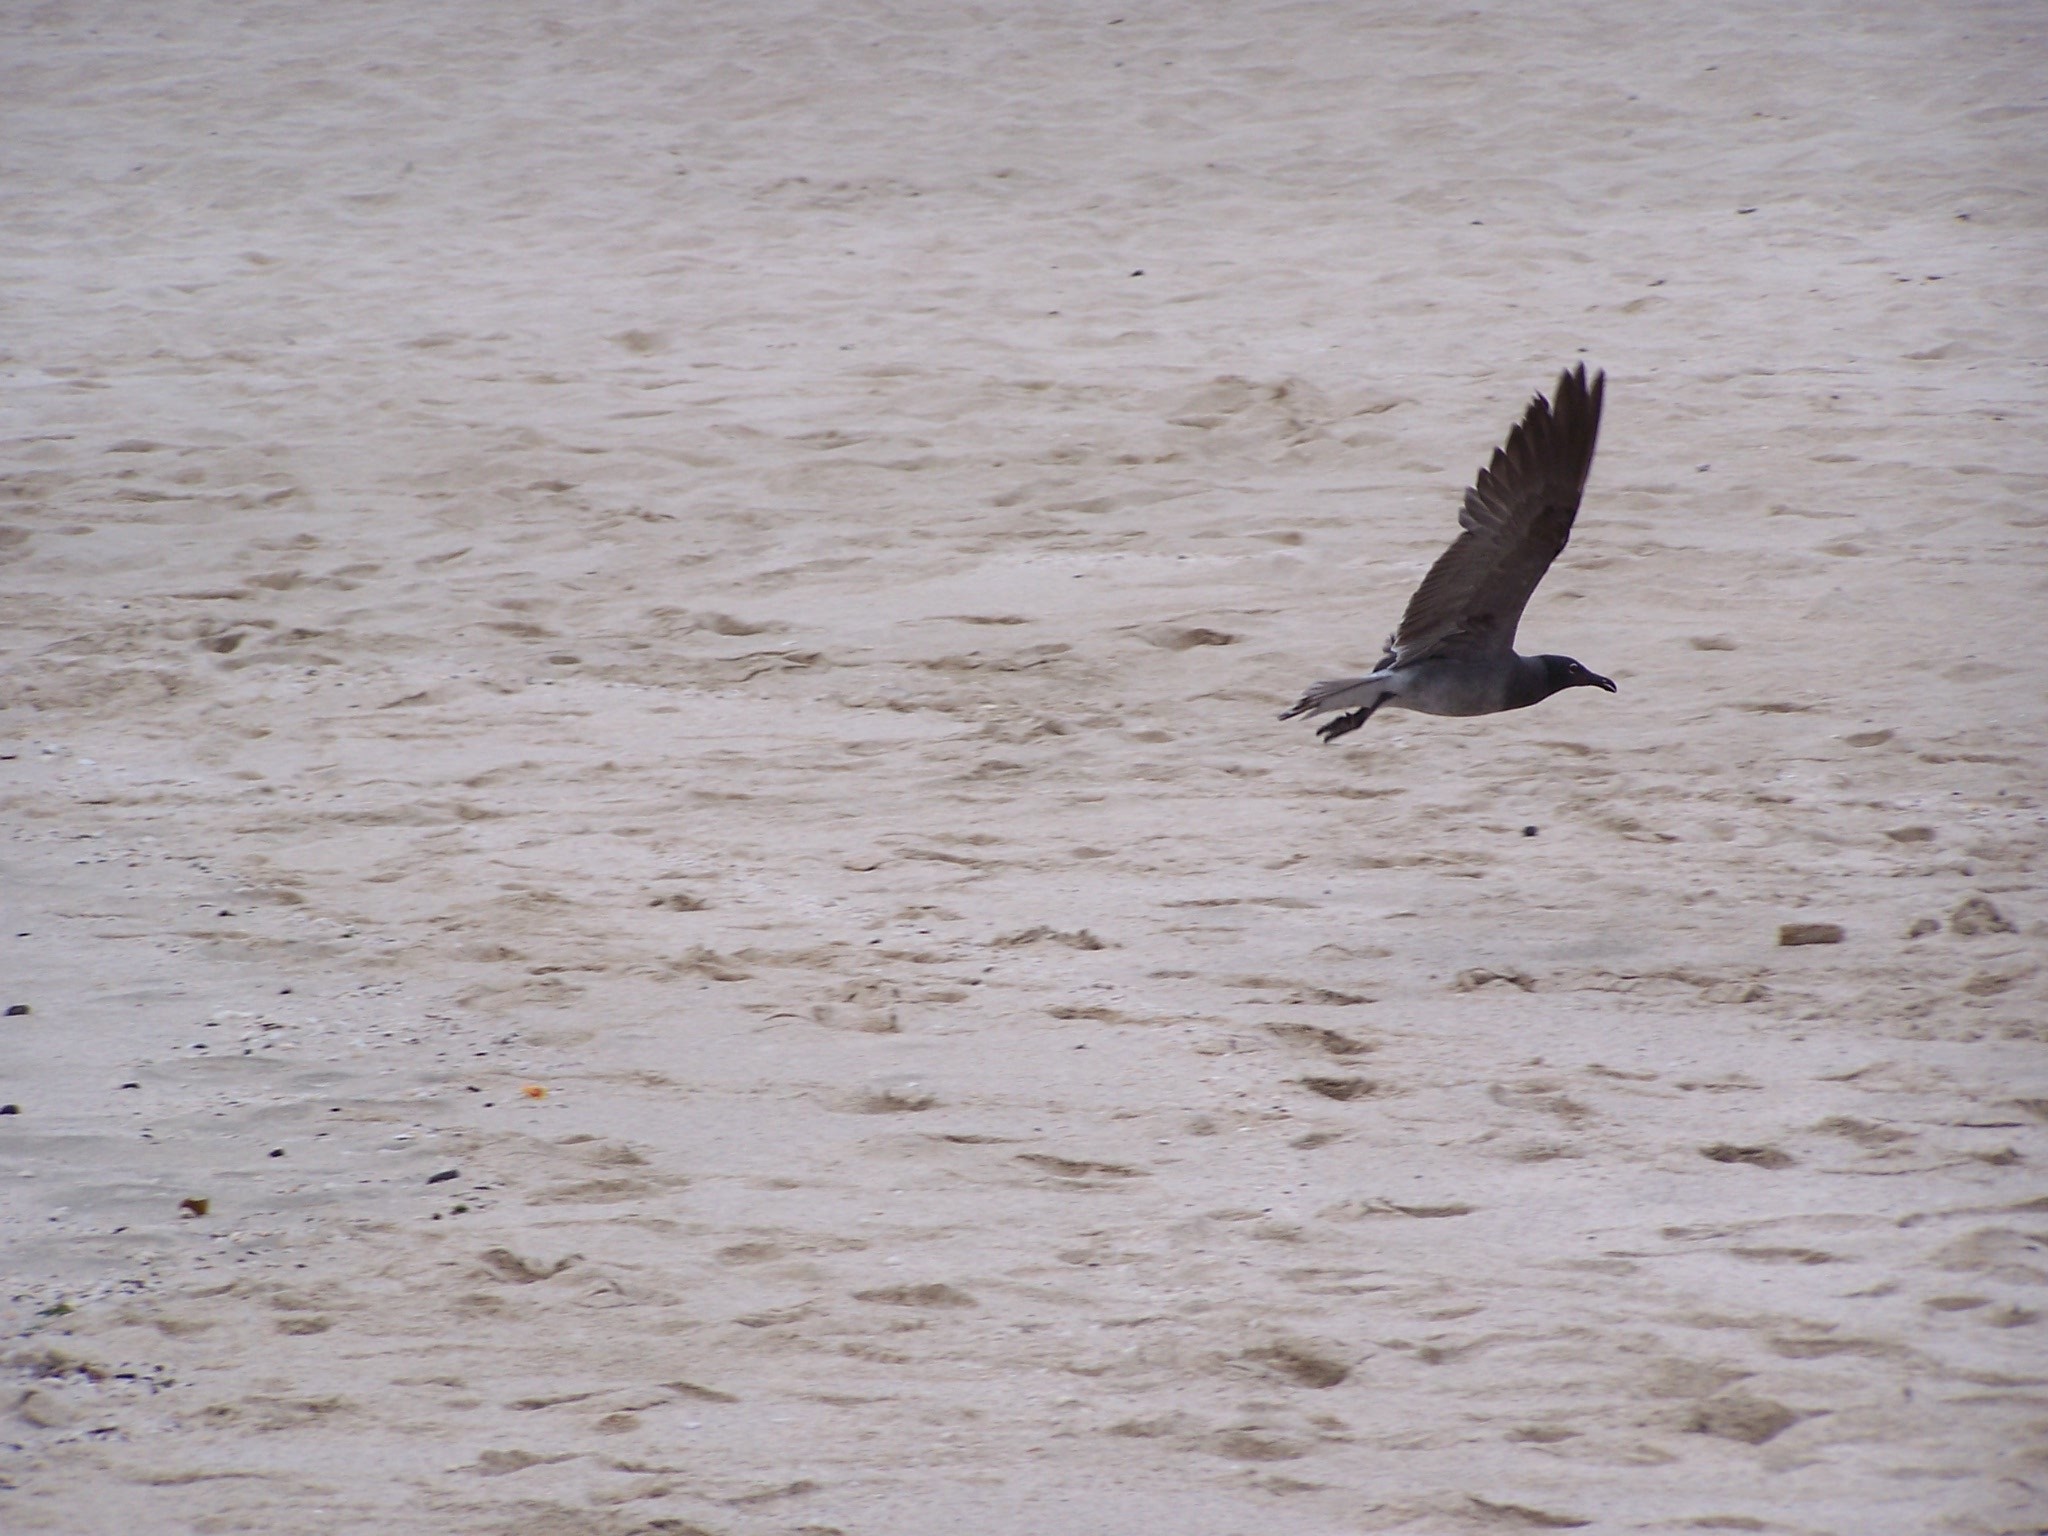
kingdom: Animalia
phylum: Chordata
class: Aves
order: Charadriiformes
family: Laridae
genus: Leucophaeus
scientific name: Leucophaeus fuliginosus
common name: Lava gull
